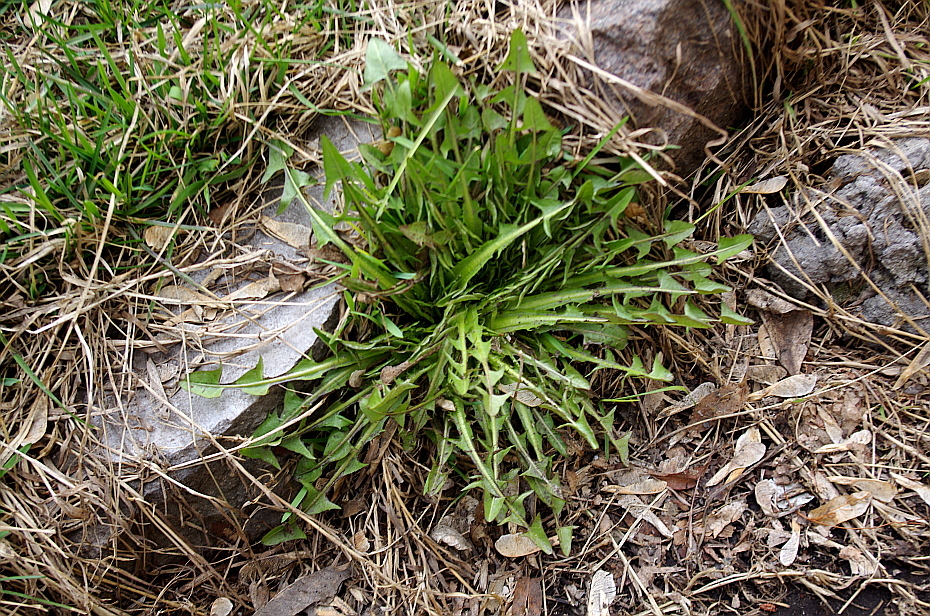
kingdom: Plantae
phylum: Tracheophyta
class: Magnoliopsida
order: Asterales
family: Asteraceae
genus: Taraxacum
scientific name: Taraxacum officinale
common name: Common dandelion
